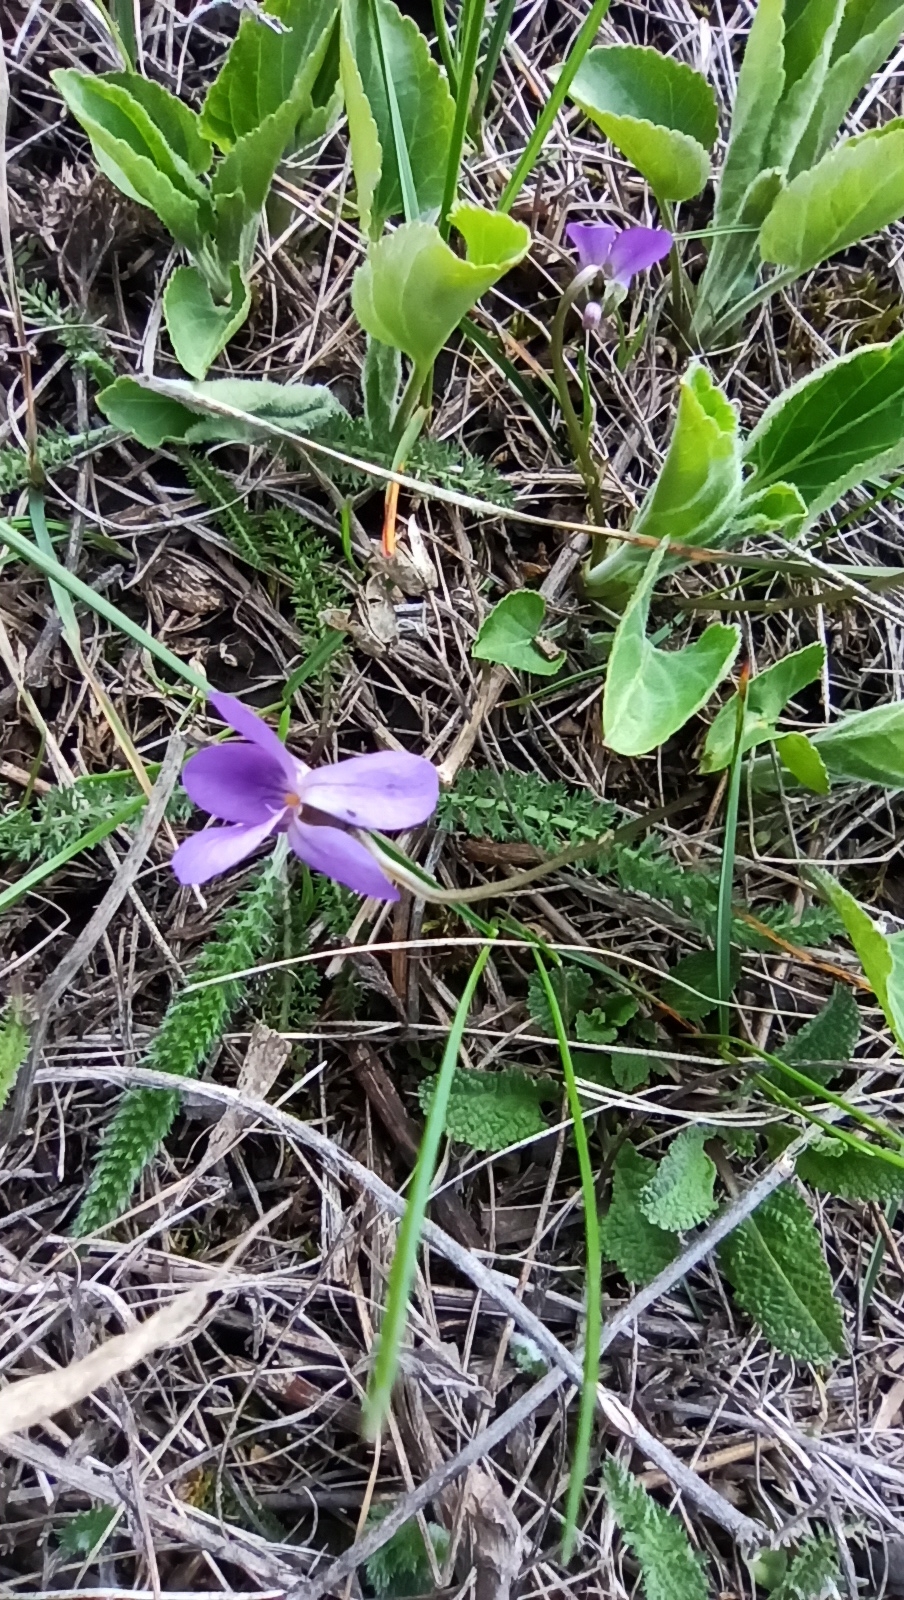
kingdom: Plantae
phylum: Tracheophyta
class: Magnoliopsida
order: Malpighiales
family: Violaceae
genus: Viola
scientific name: Viola ambigua
